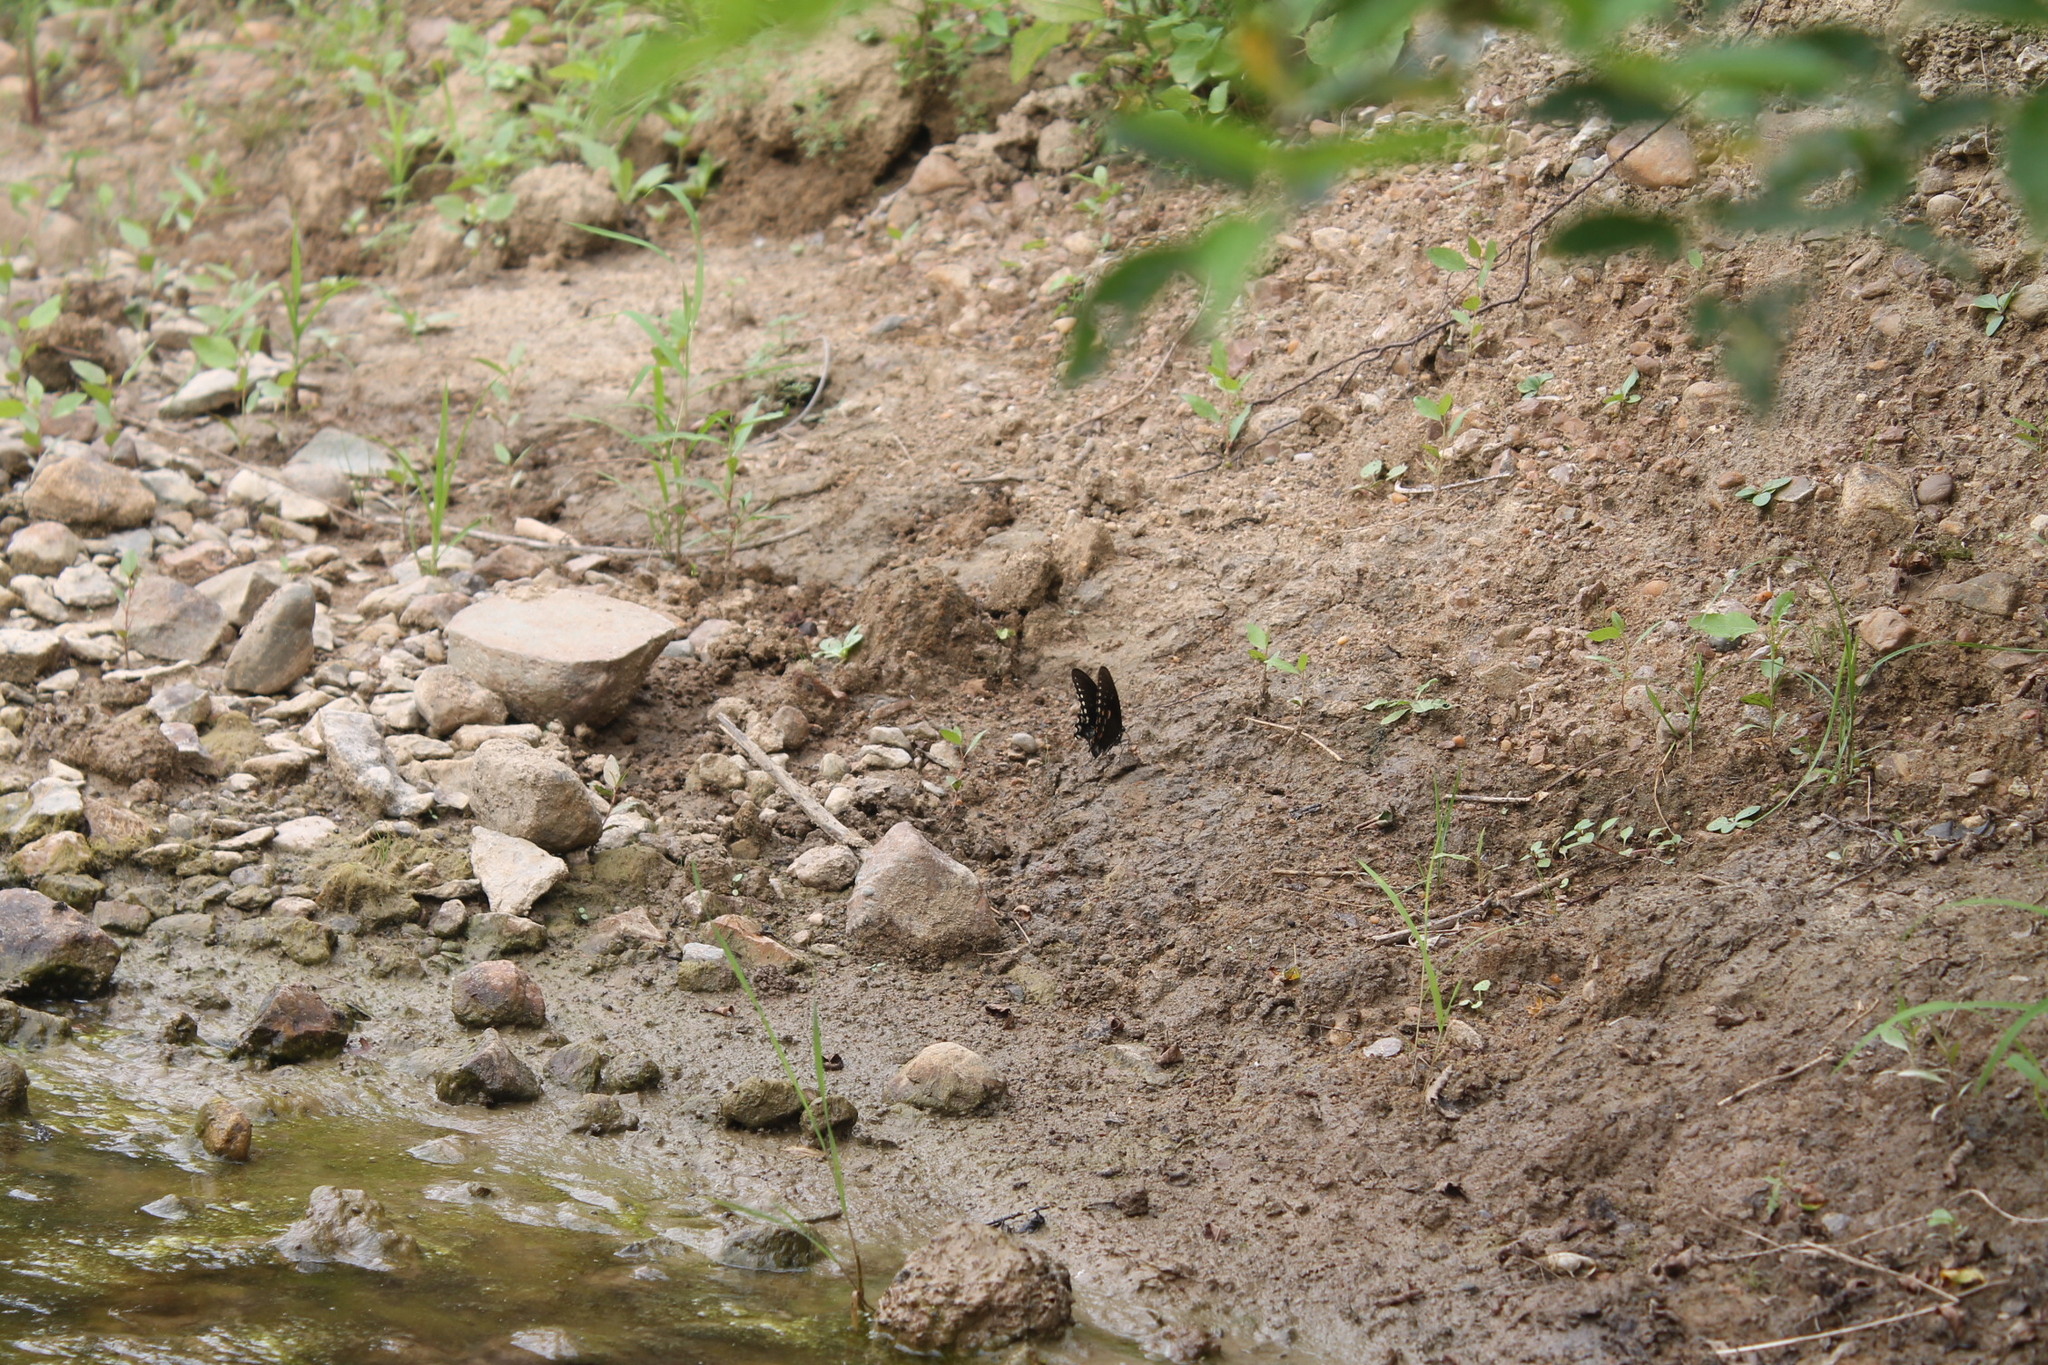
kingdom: Animalia
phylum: Arthropoda
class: Insecta
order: Lepidoptera
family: Papilionidae
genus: Papilio
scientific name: Papilio troilus
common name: Spicebush swallowtail
